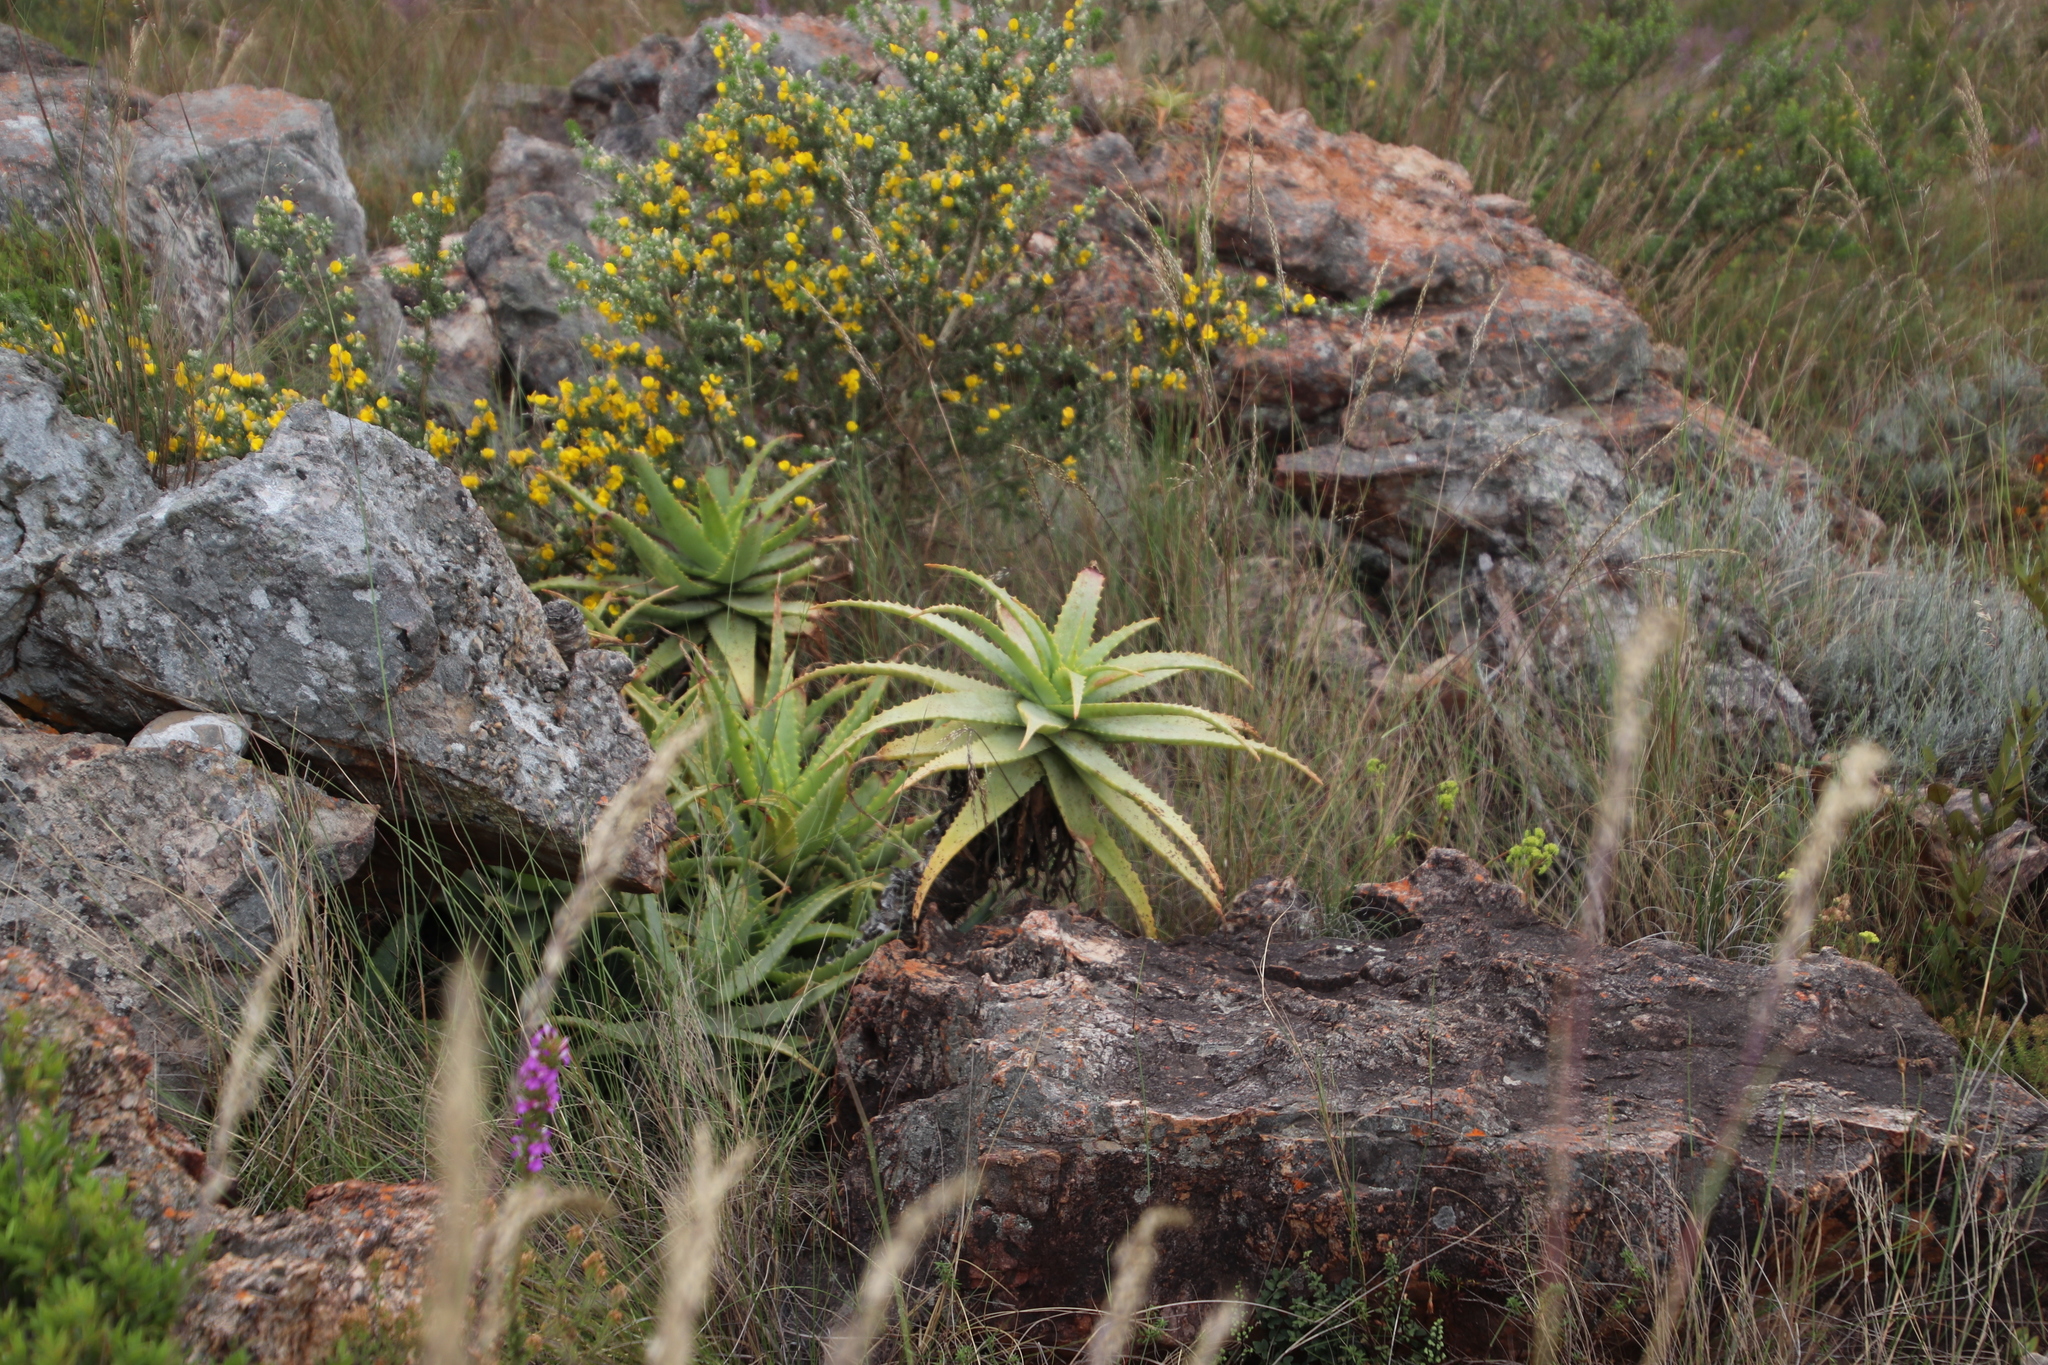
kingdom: Plantae
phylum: Tracheophyta
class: Liliopsida
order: Asparagales
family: Asphodelaceae
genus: Aloe
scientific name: Aloe arborescens
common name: Candelabra aloe
